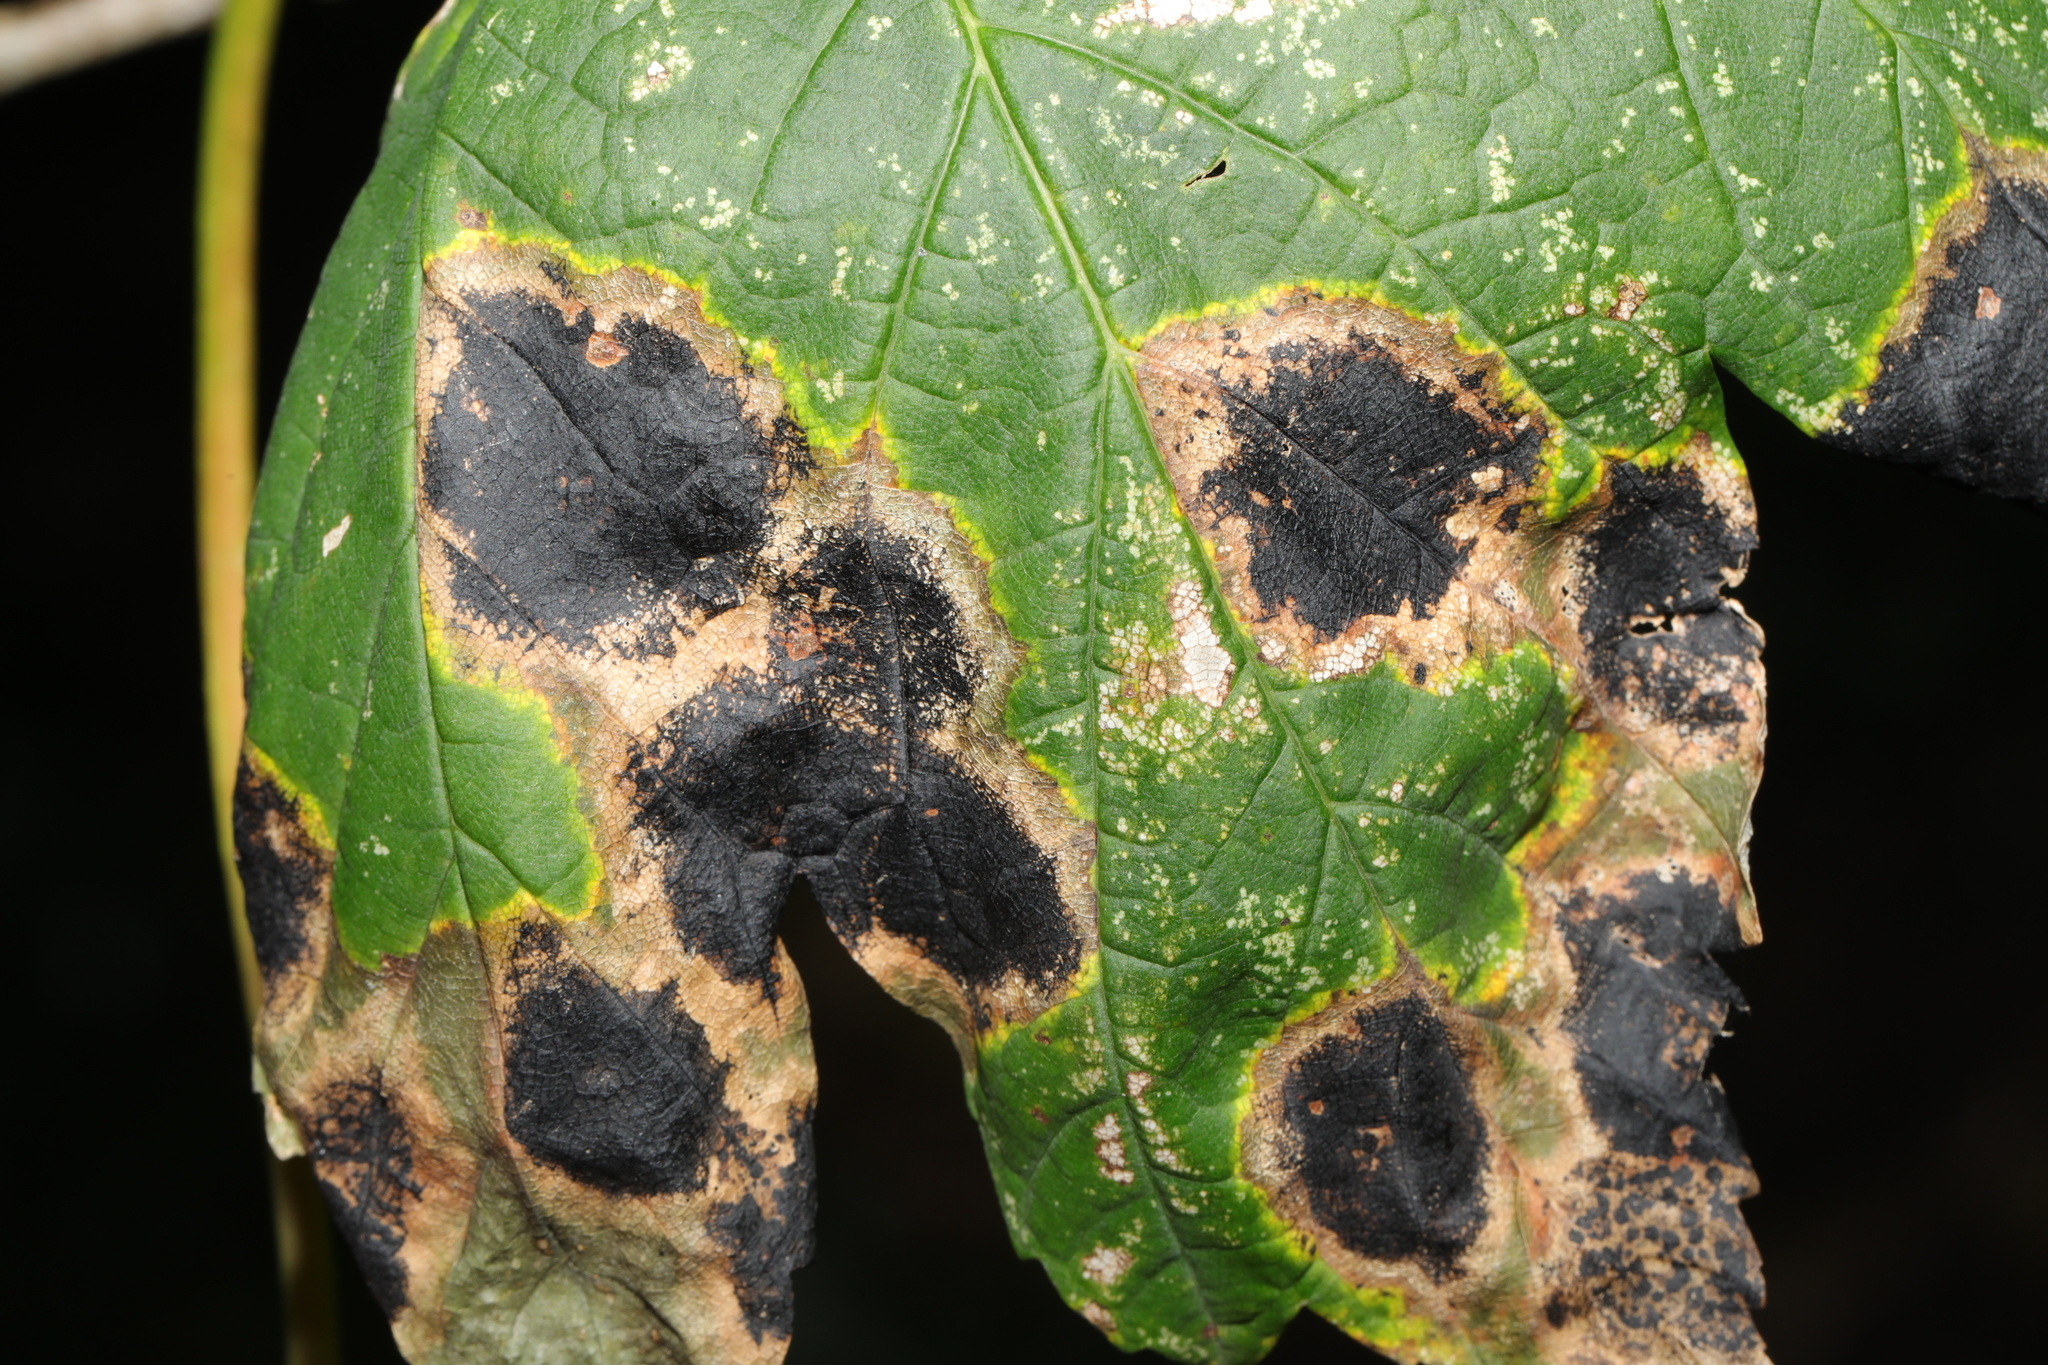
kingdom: Fungi
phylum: Ascomycota
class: Leotiomycetes
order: Rhytismatales
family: Rhytismataceae
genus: Rhytisma
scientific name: Rhytisma acerinum
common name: European tar spot
